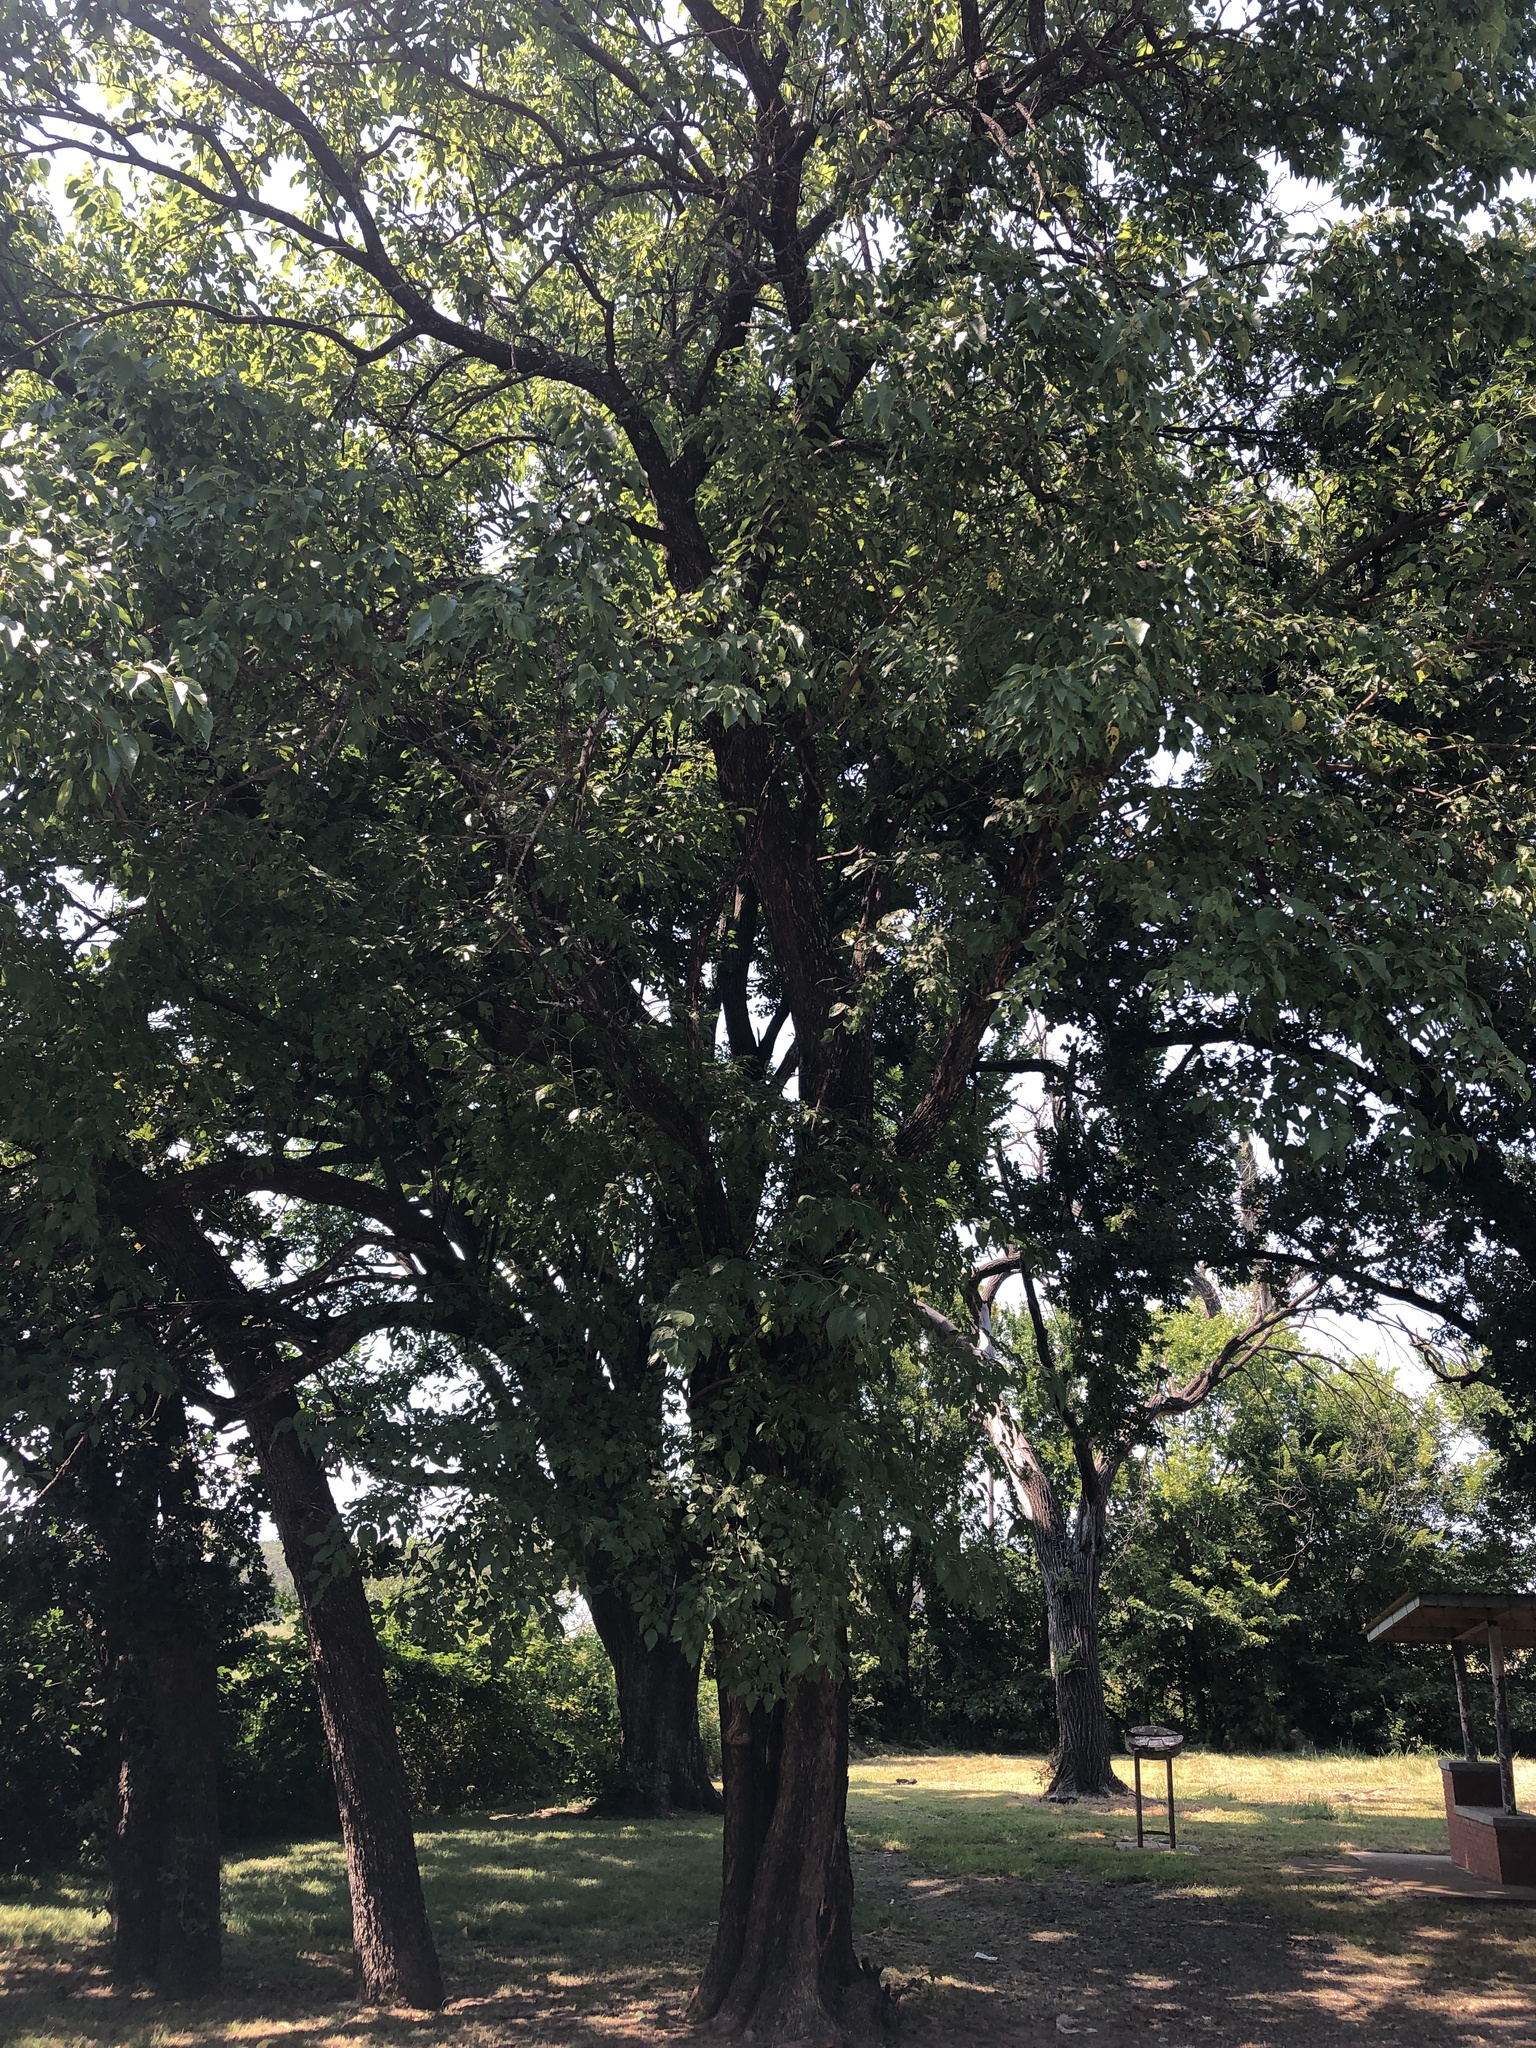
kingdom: Plantae
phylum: Tracheophyta
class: Magnoliopsida
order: Rosales
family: Moraceae
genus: Maclura
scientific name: Maclura pomifera
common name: Osage-orange
